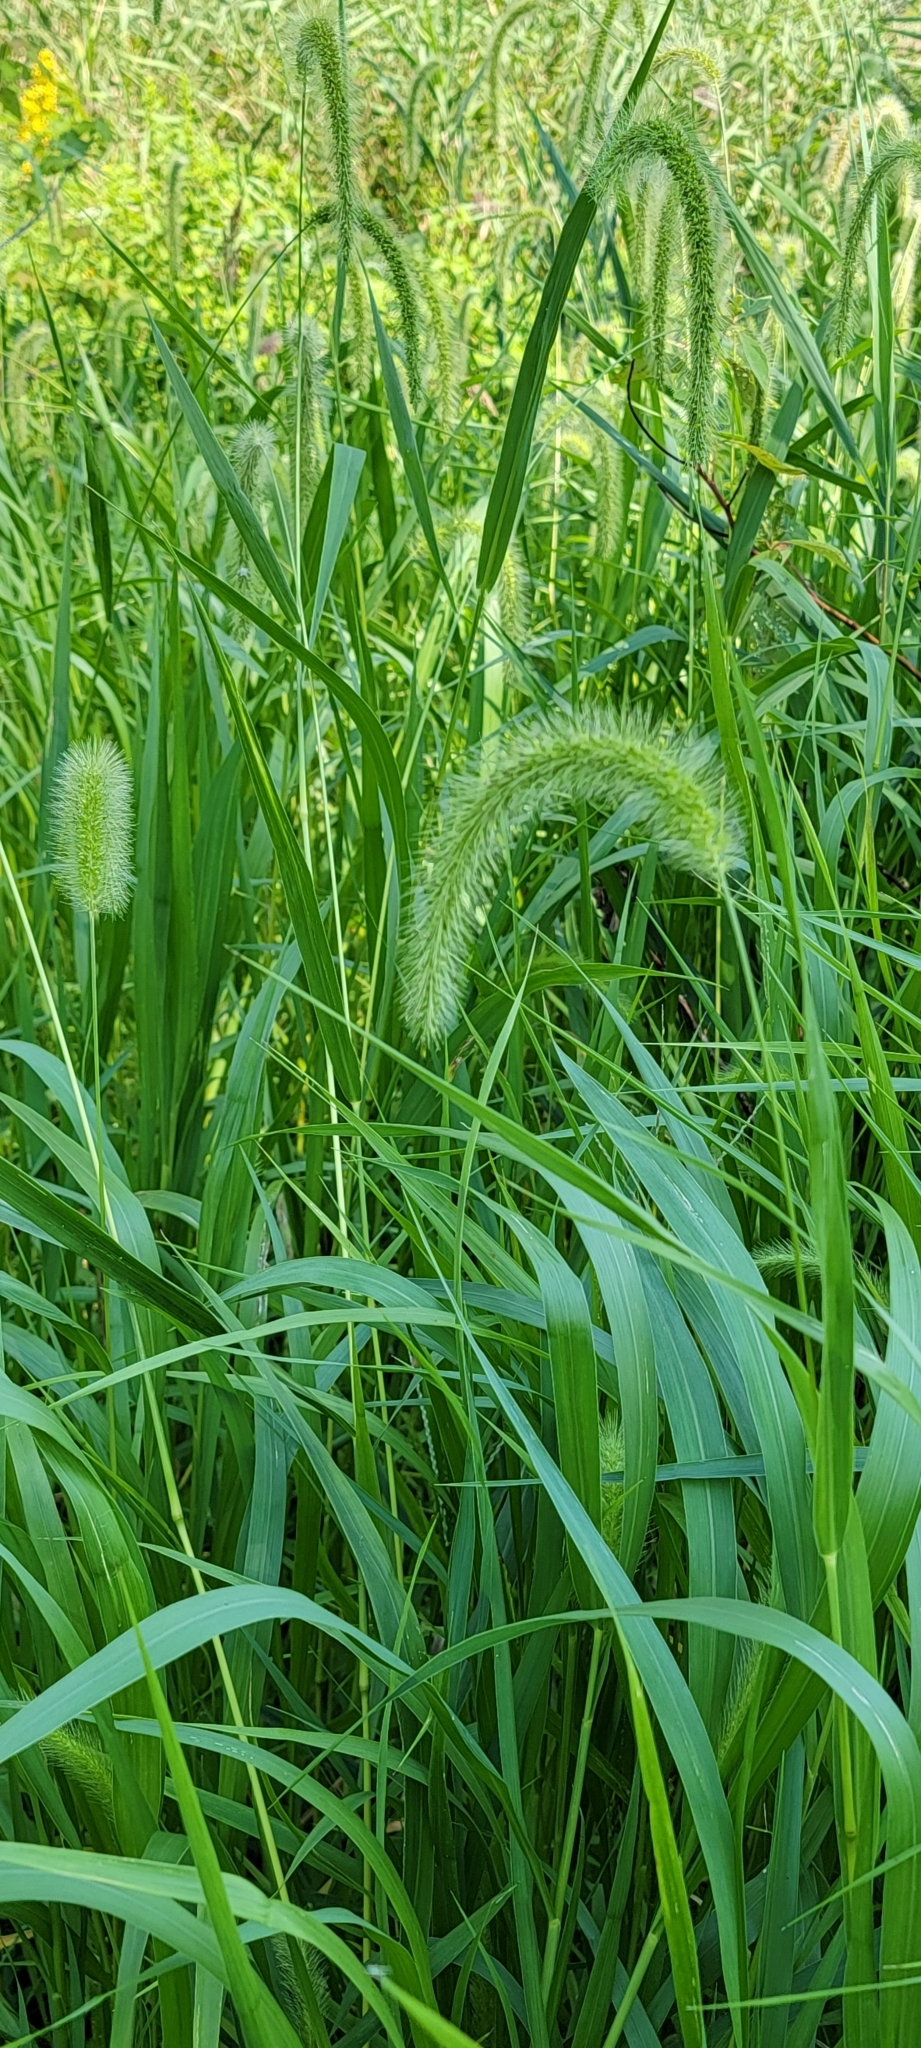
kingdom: Plantae
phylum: Tracheophyta
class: Liliopsida
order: Poales
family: Poaceae
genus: Setaria
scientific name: Setaria faberi
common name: Nodding bristle-grass
